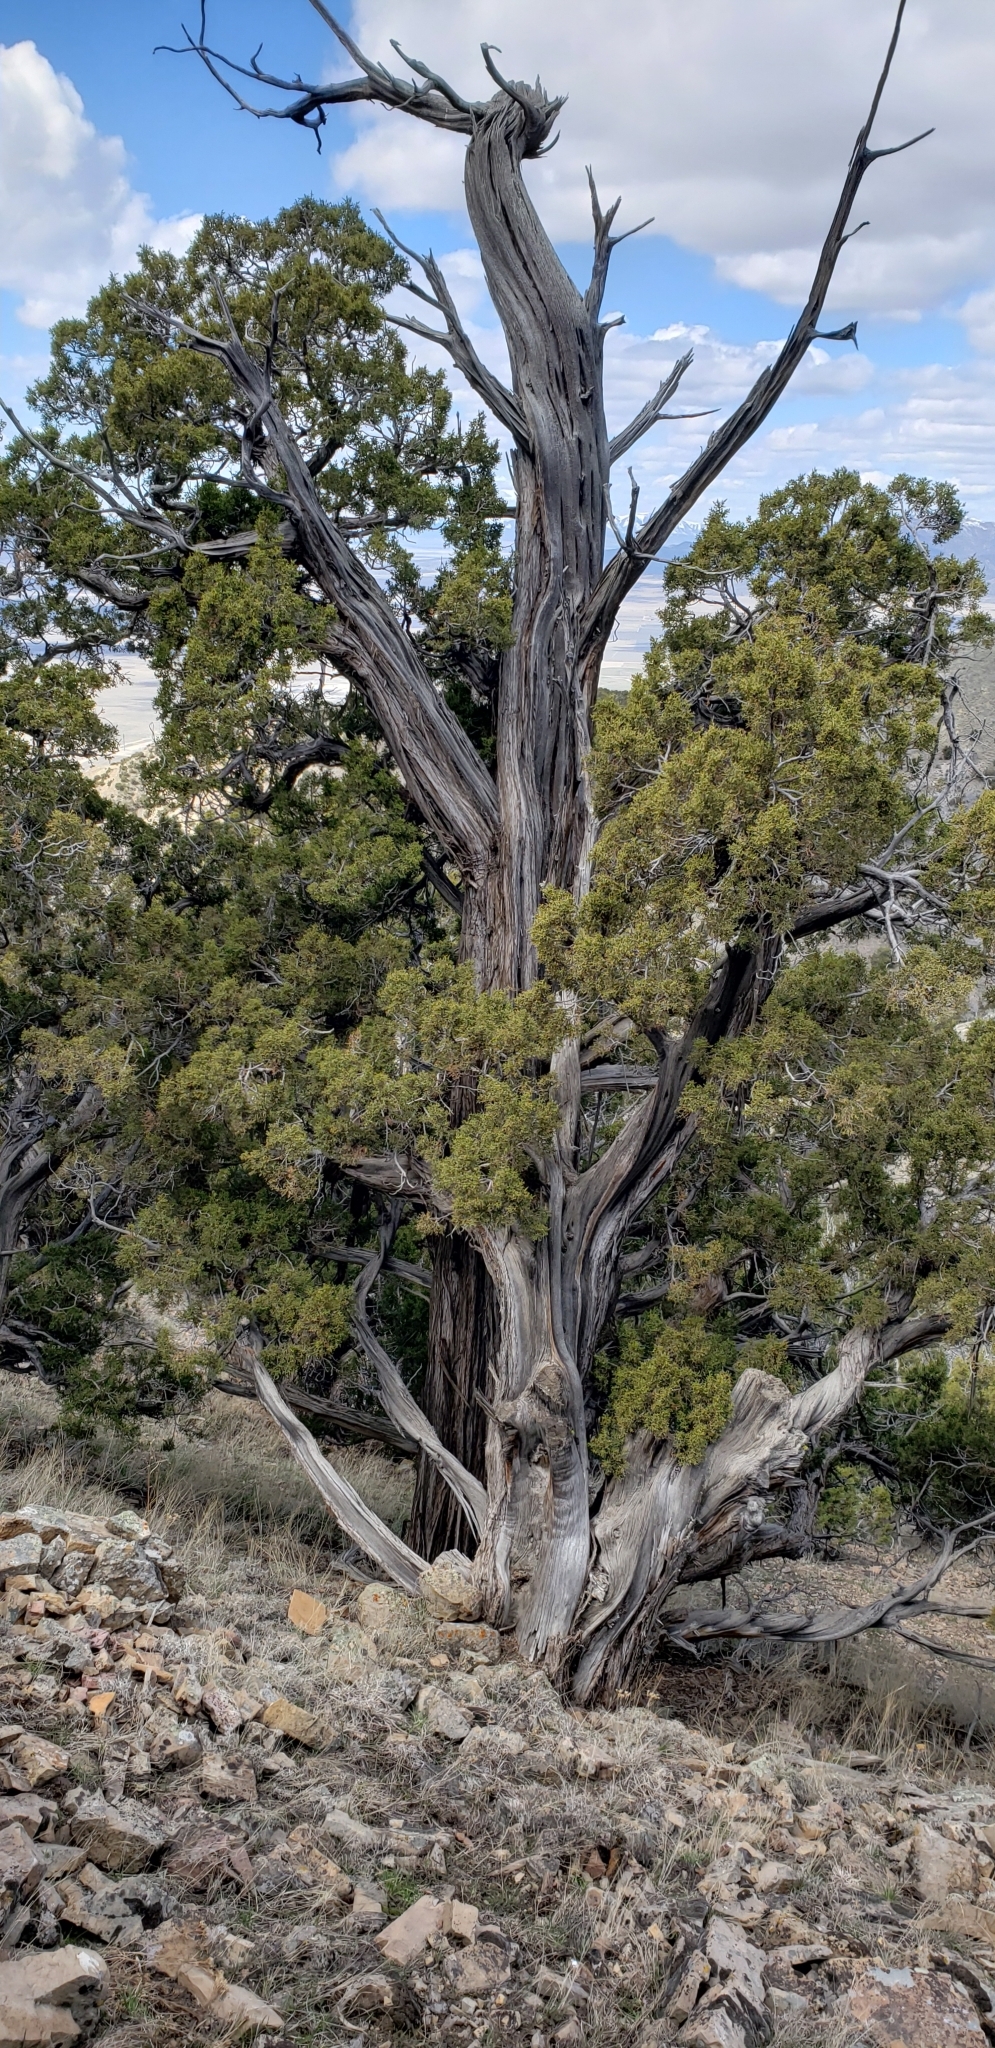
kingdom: Plantae
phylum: Tracheophyta
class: Pinopsida
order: Pinales
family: Cupressaceae
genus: Juniperus
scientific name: Juniperus osteosperma
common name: Utah juniper
